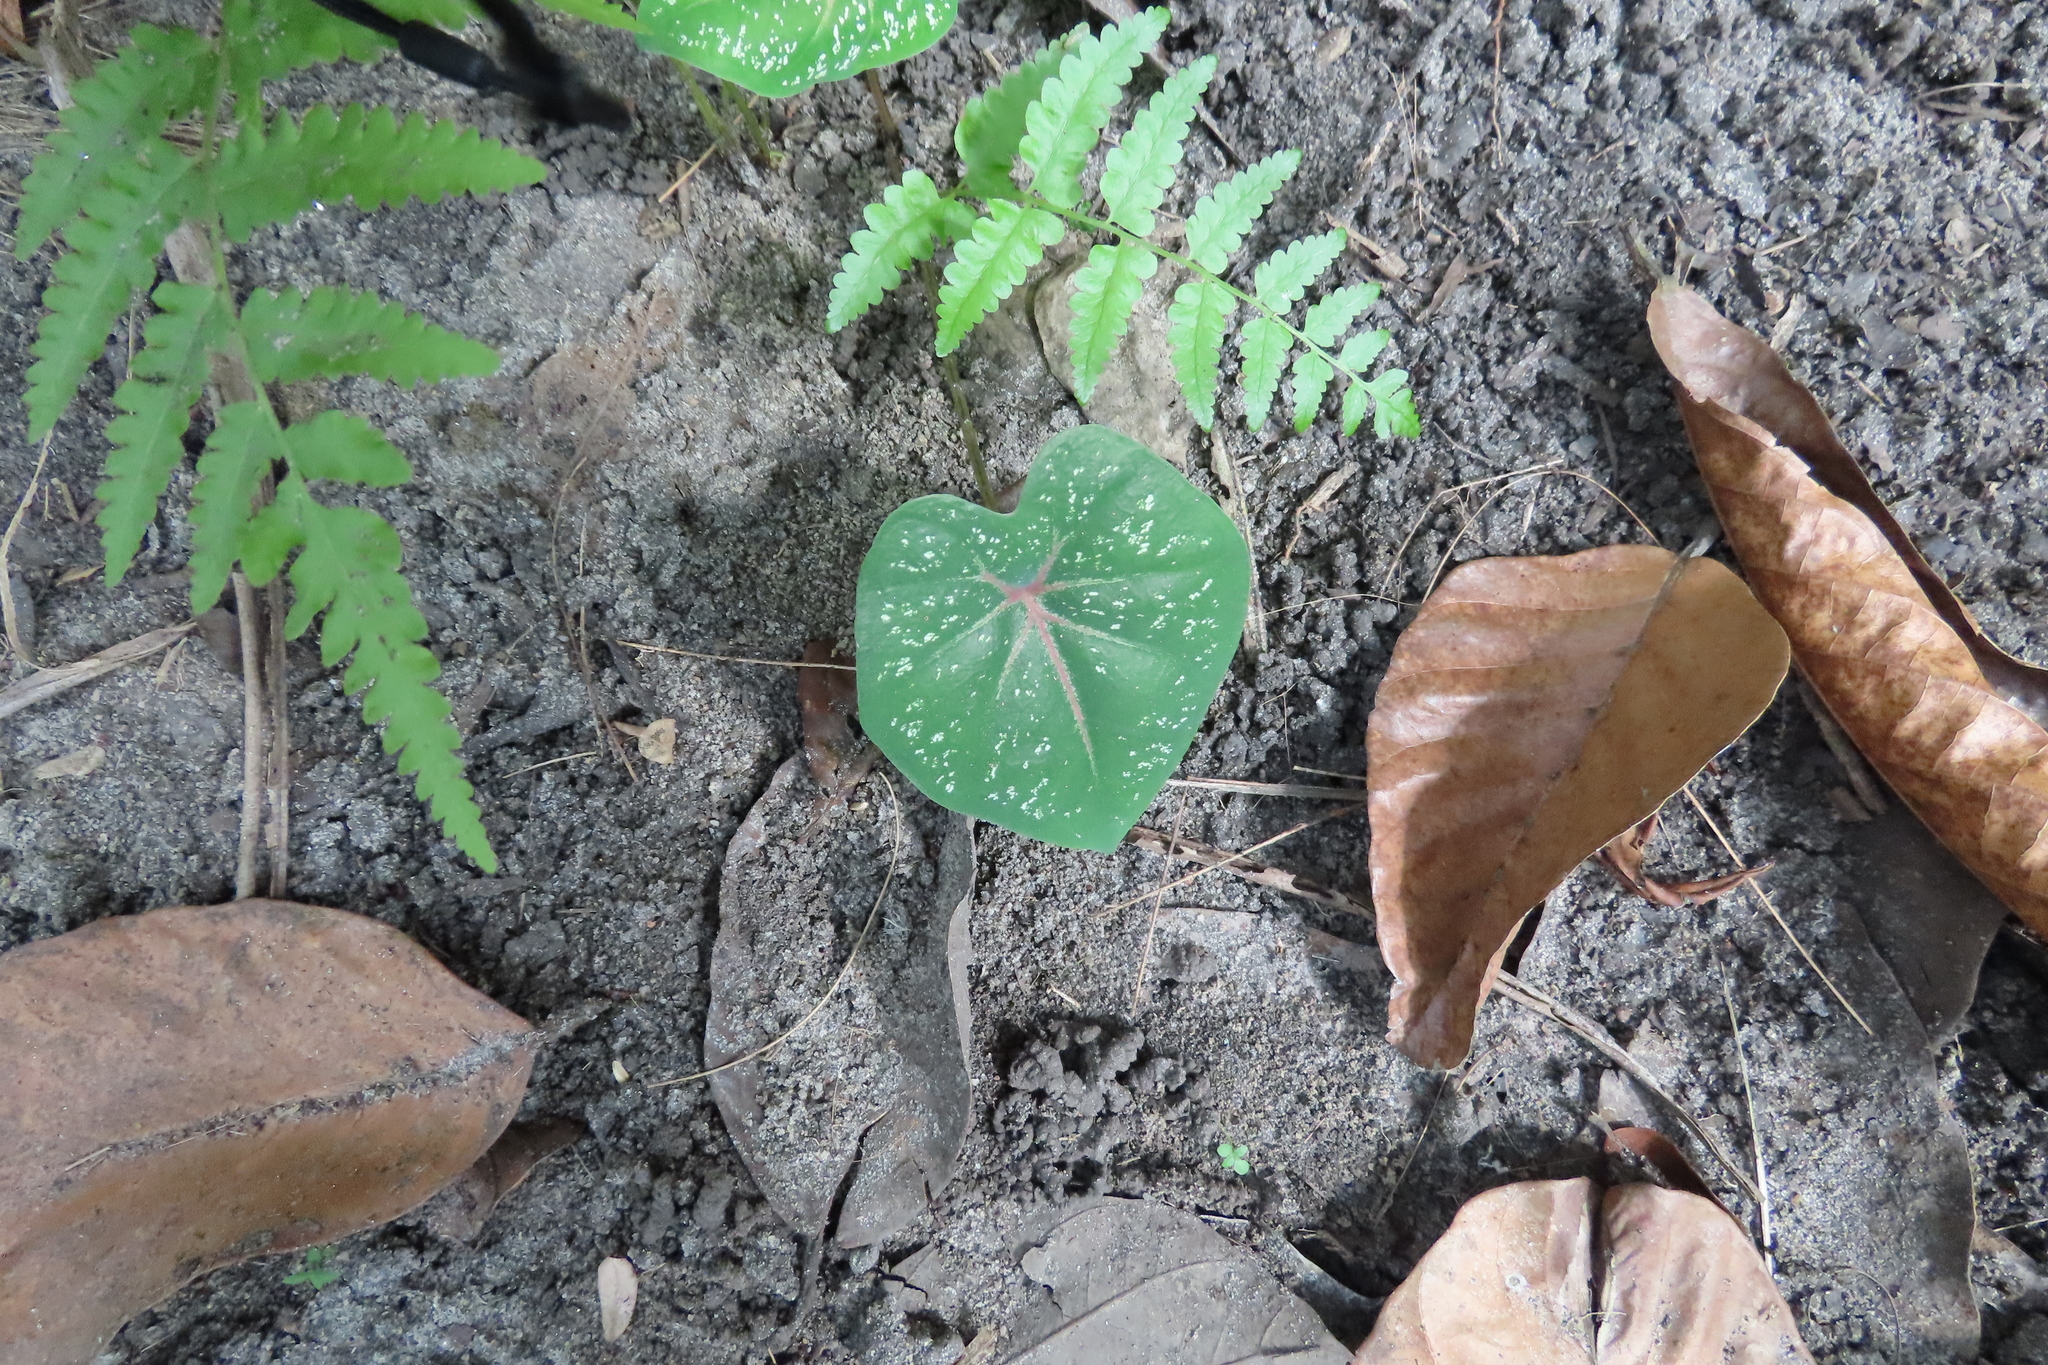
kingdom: Plantae
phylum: Tracheophyta
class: Liliopsida
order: Alismatales
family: Araceae
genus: Caladium
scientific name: Caladium bicolor
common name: Artist's pallet
